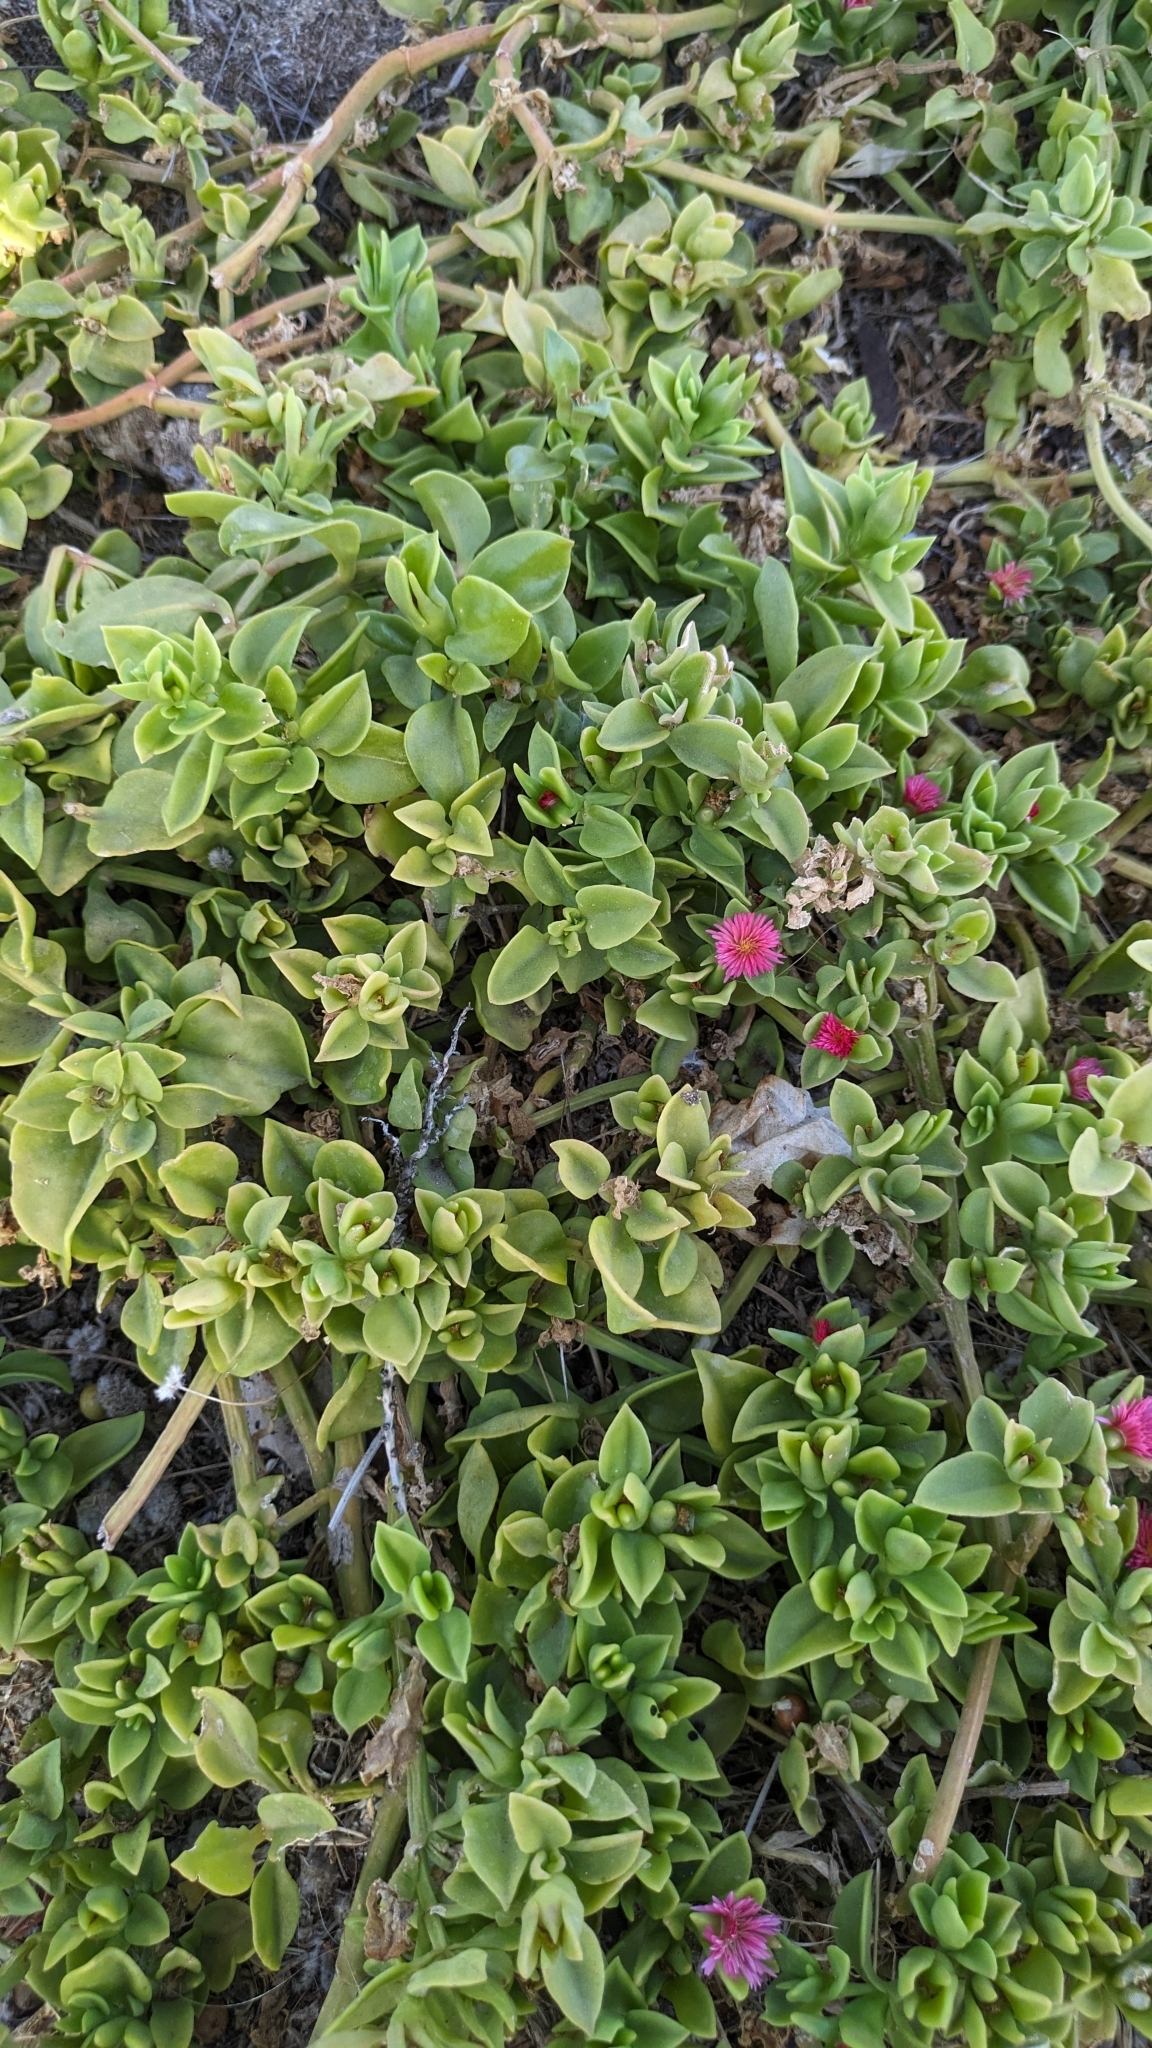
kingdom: Plantae
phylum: Tracheophyta
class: Magnoliopsida
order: Caryophyllales
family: Aizoaceae
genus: Mesembryanthemum
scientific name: Mesembryanthemum cordifolium
